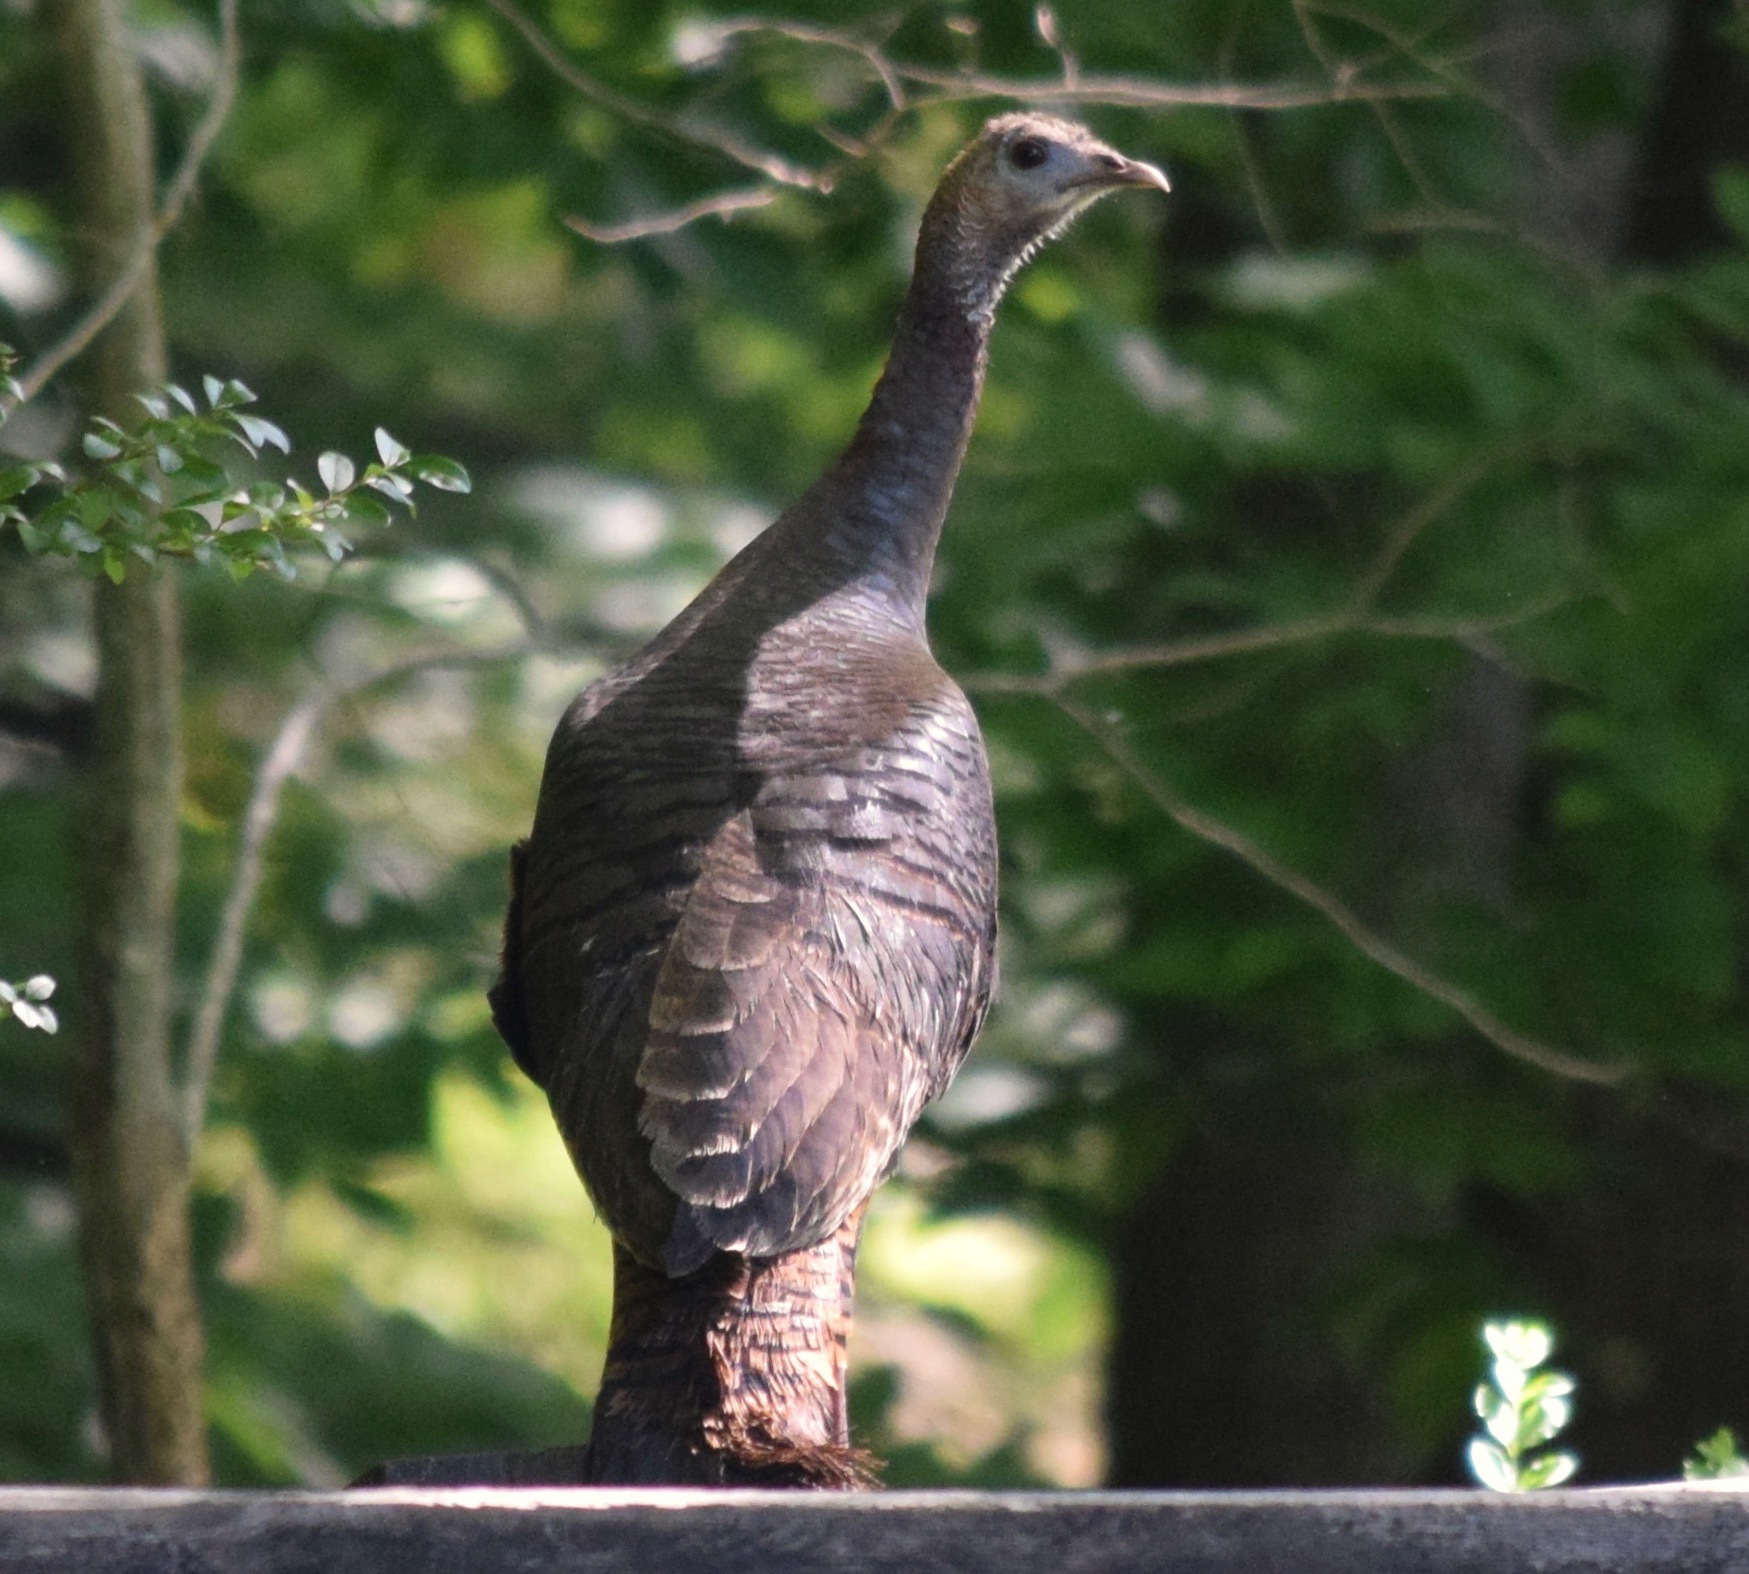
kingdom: Animalia
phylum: Chordata
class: Aves
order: Galliformes
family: Phasianidae
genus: Meleagris
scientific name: Meleagris gallopavo
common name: Wild turkey
